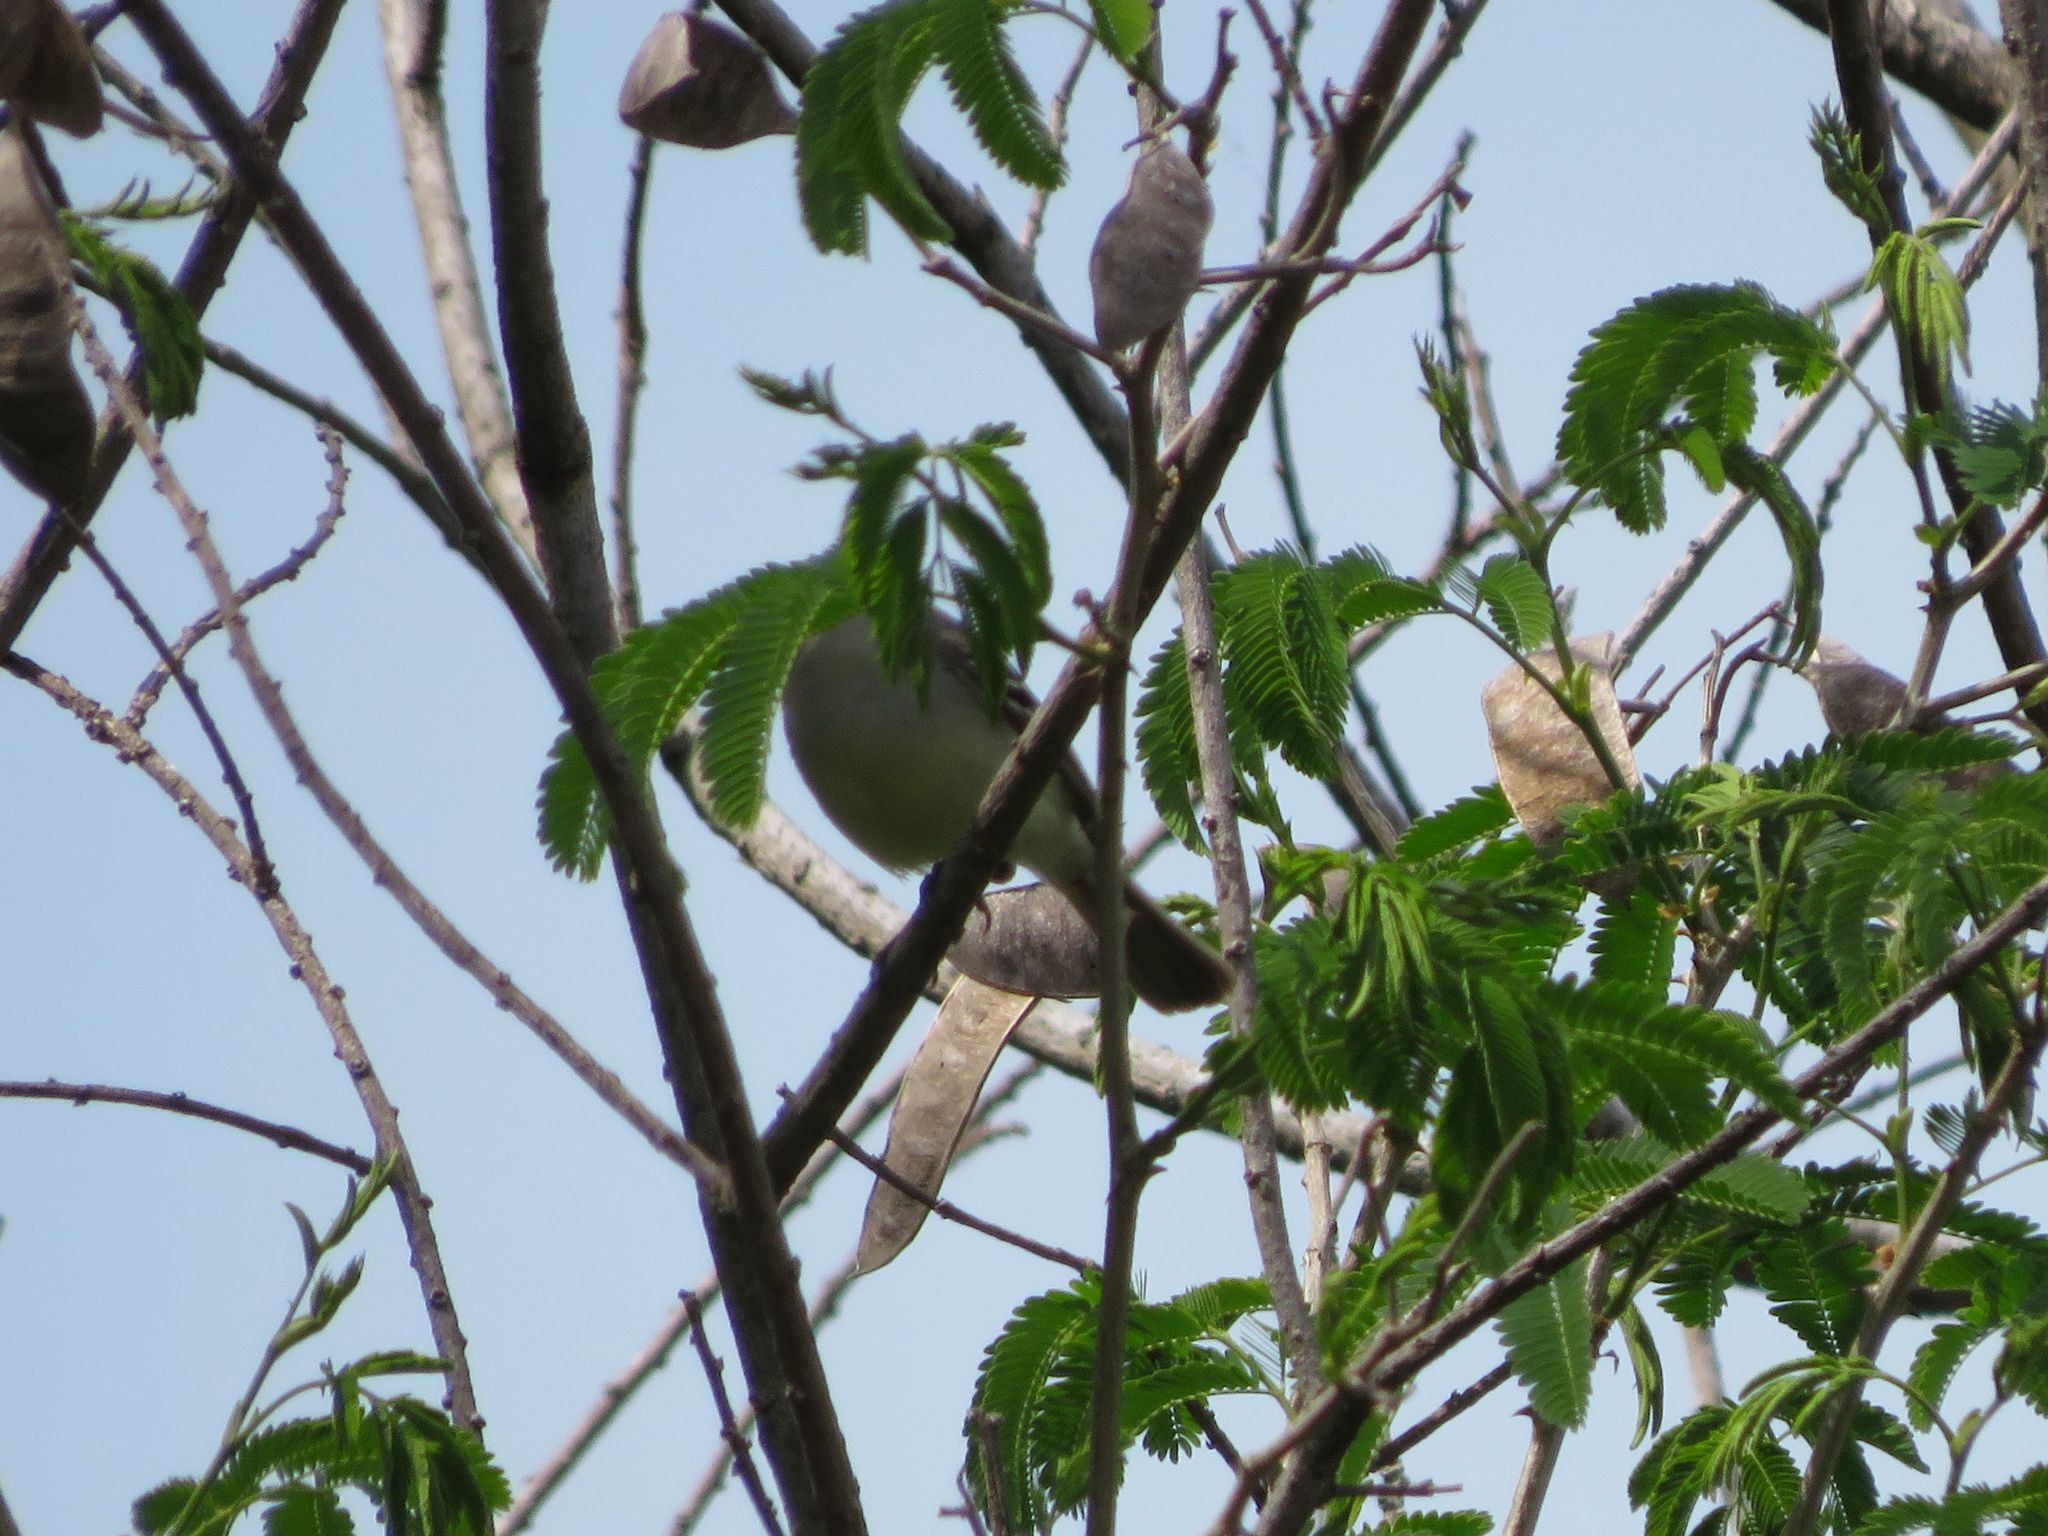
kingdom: Animalia
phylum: Chordata
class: Aves
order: Passeriformes
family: Tyrannidae
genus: Serpophaga
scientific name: Serpophaga
